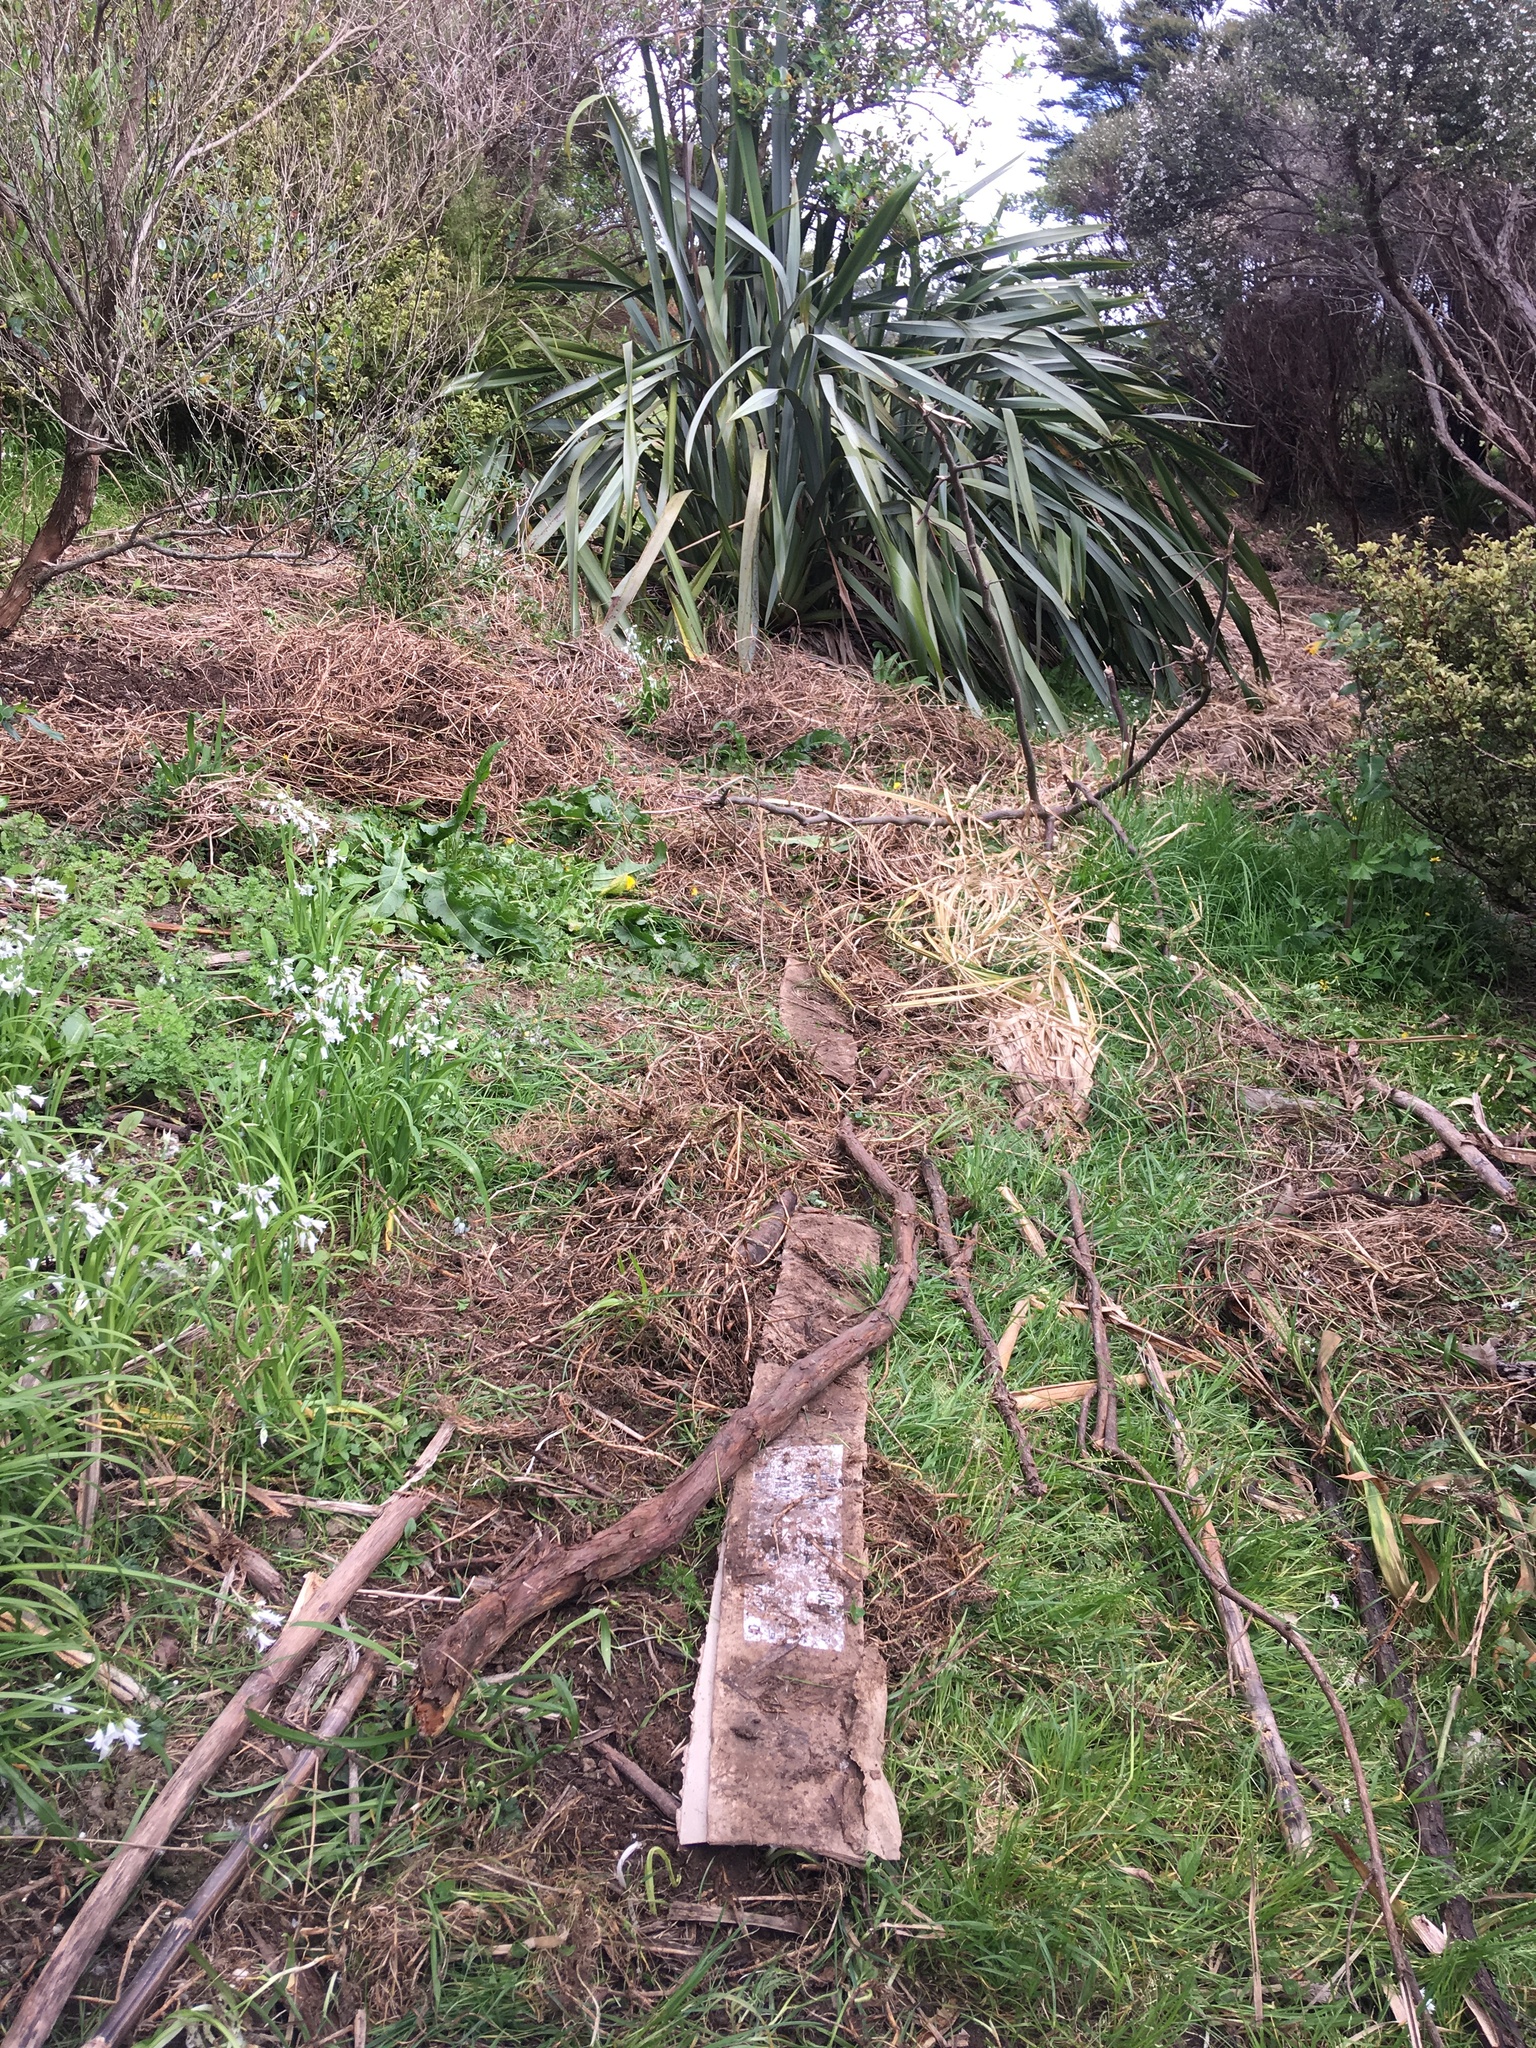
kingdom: Plantae
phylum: Tracheophyta
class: Liliopsida
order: Poales
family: Poaceae
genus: Cenchrus
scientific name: Cenchrus clandestinus
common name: Kikuyugrass
